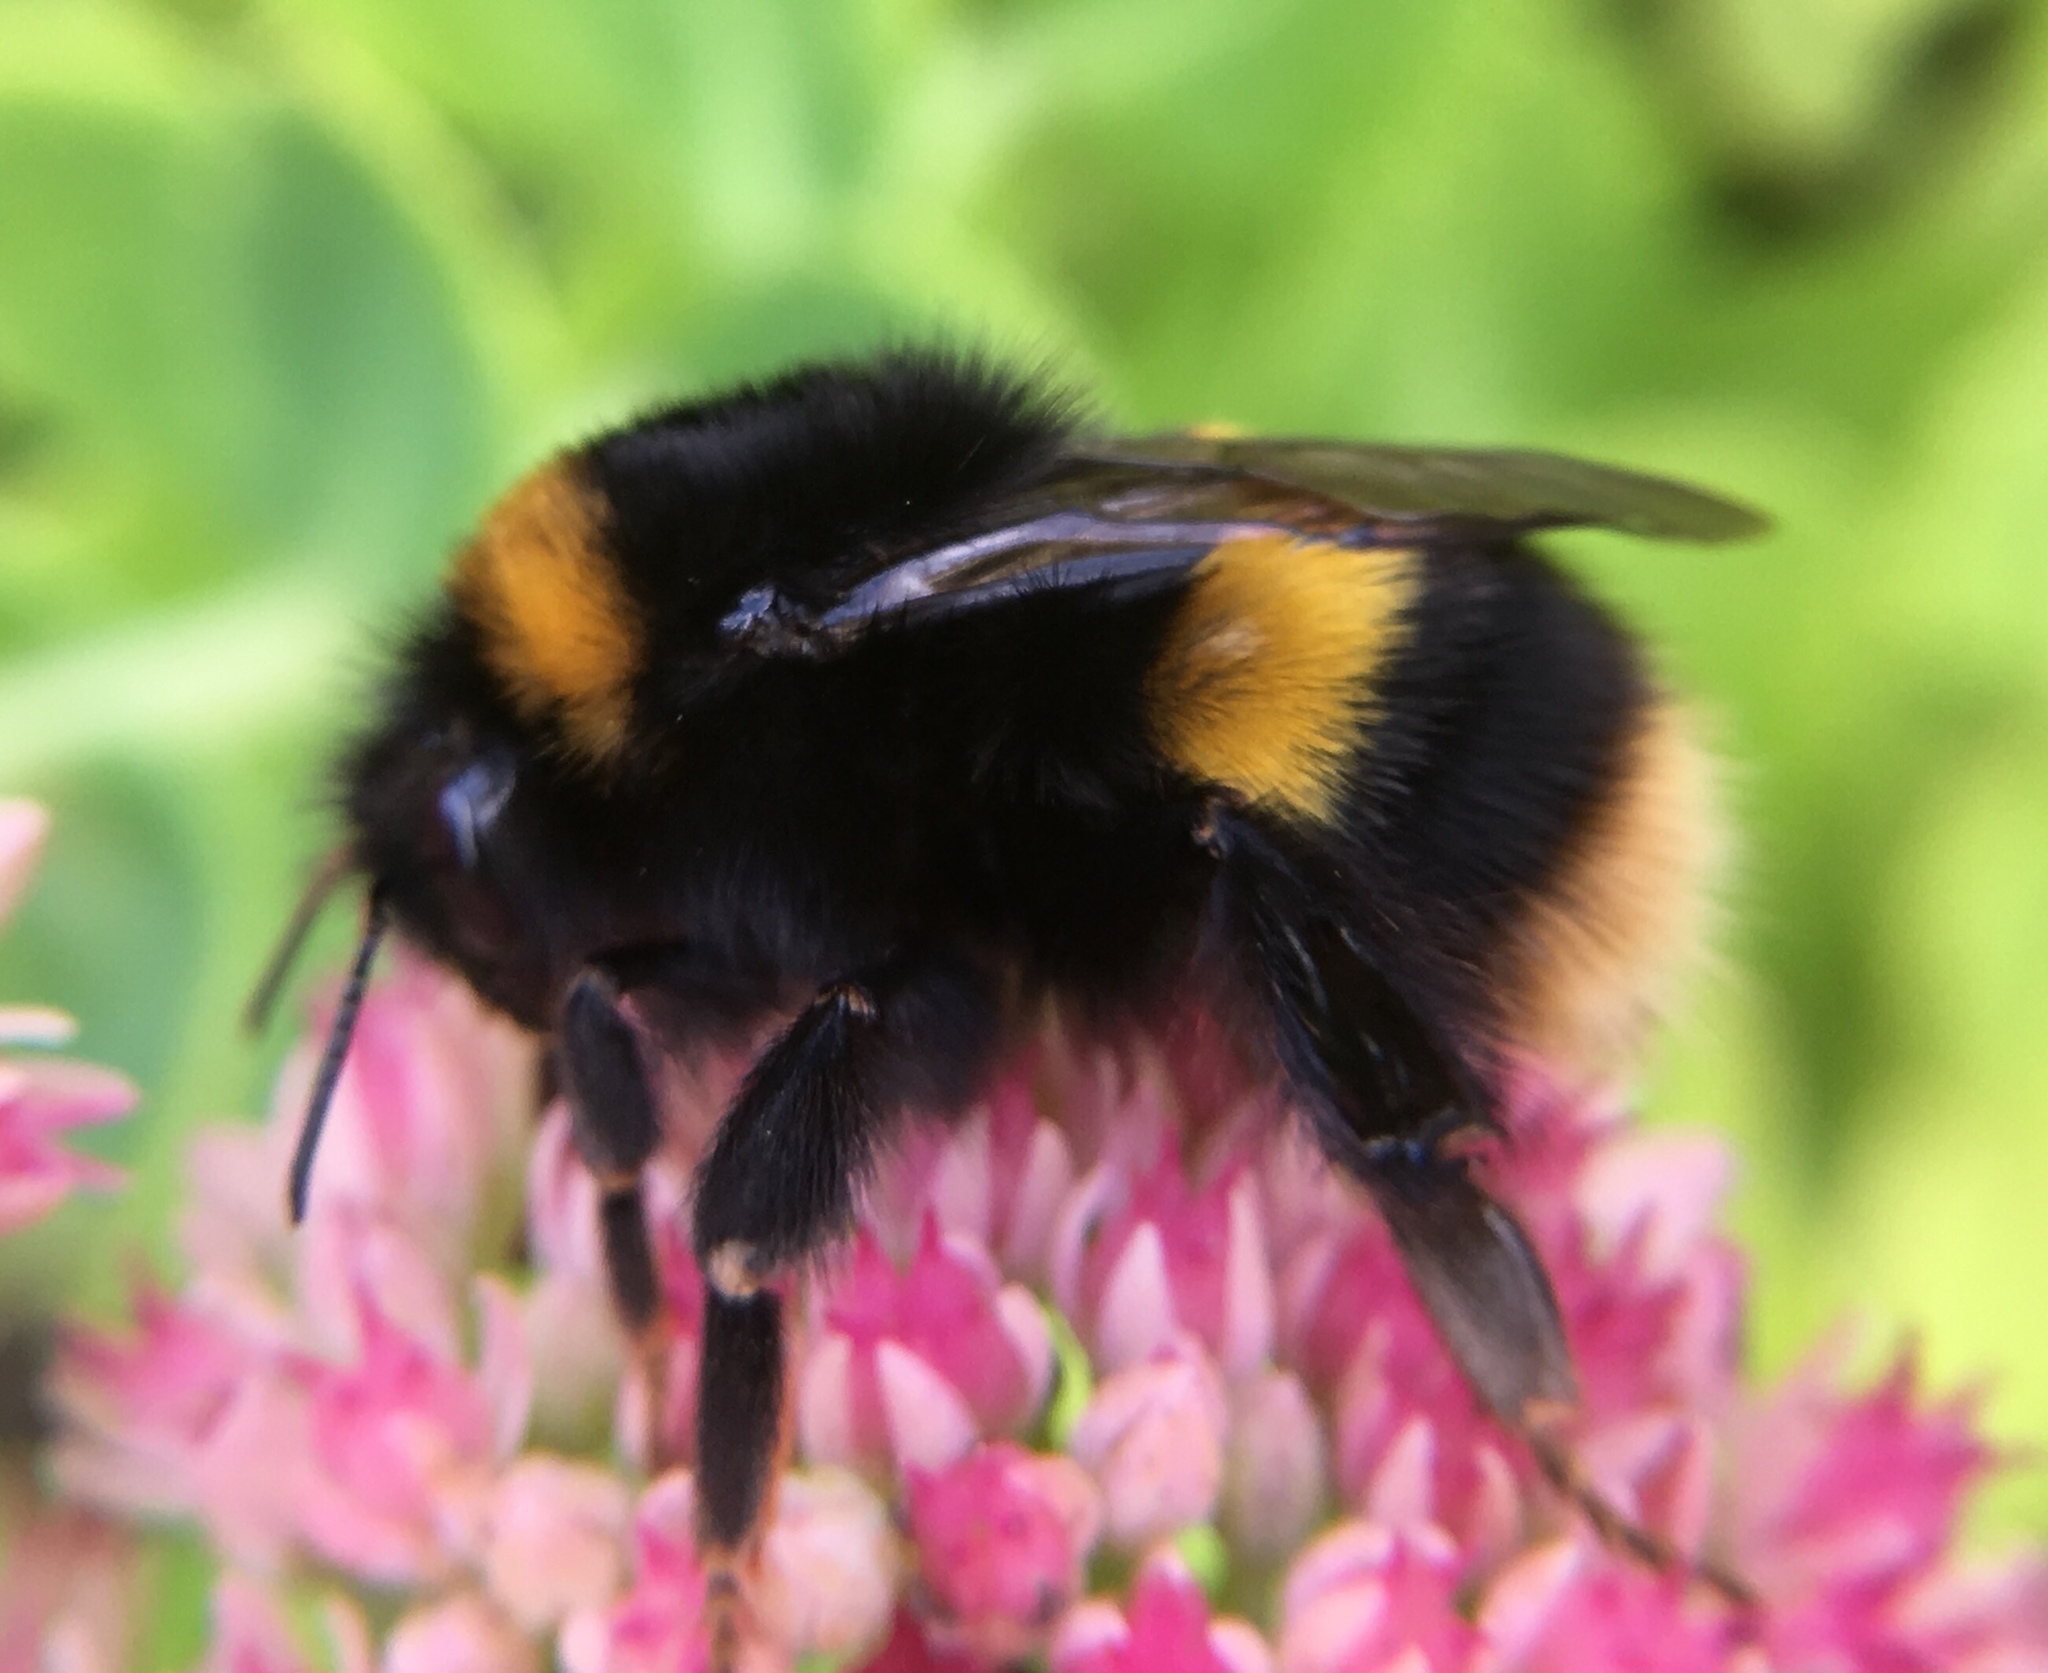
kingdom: Animalia
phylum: Arthropoda
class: Insecta
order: Hymenoptera
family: Apidae
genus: Bombus
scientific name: Bombus terrestris
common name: Buff-tailed bumblebee
